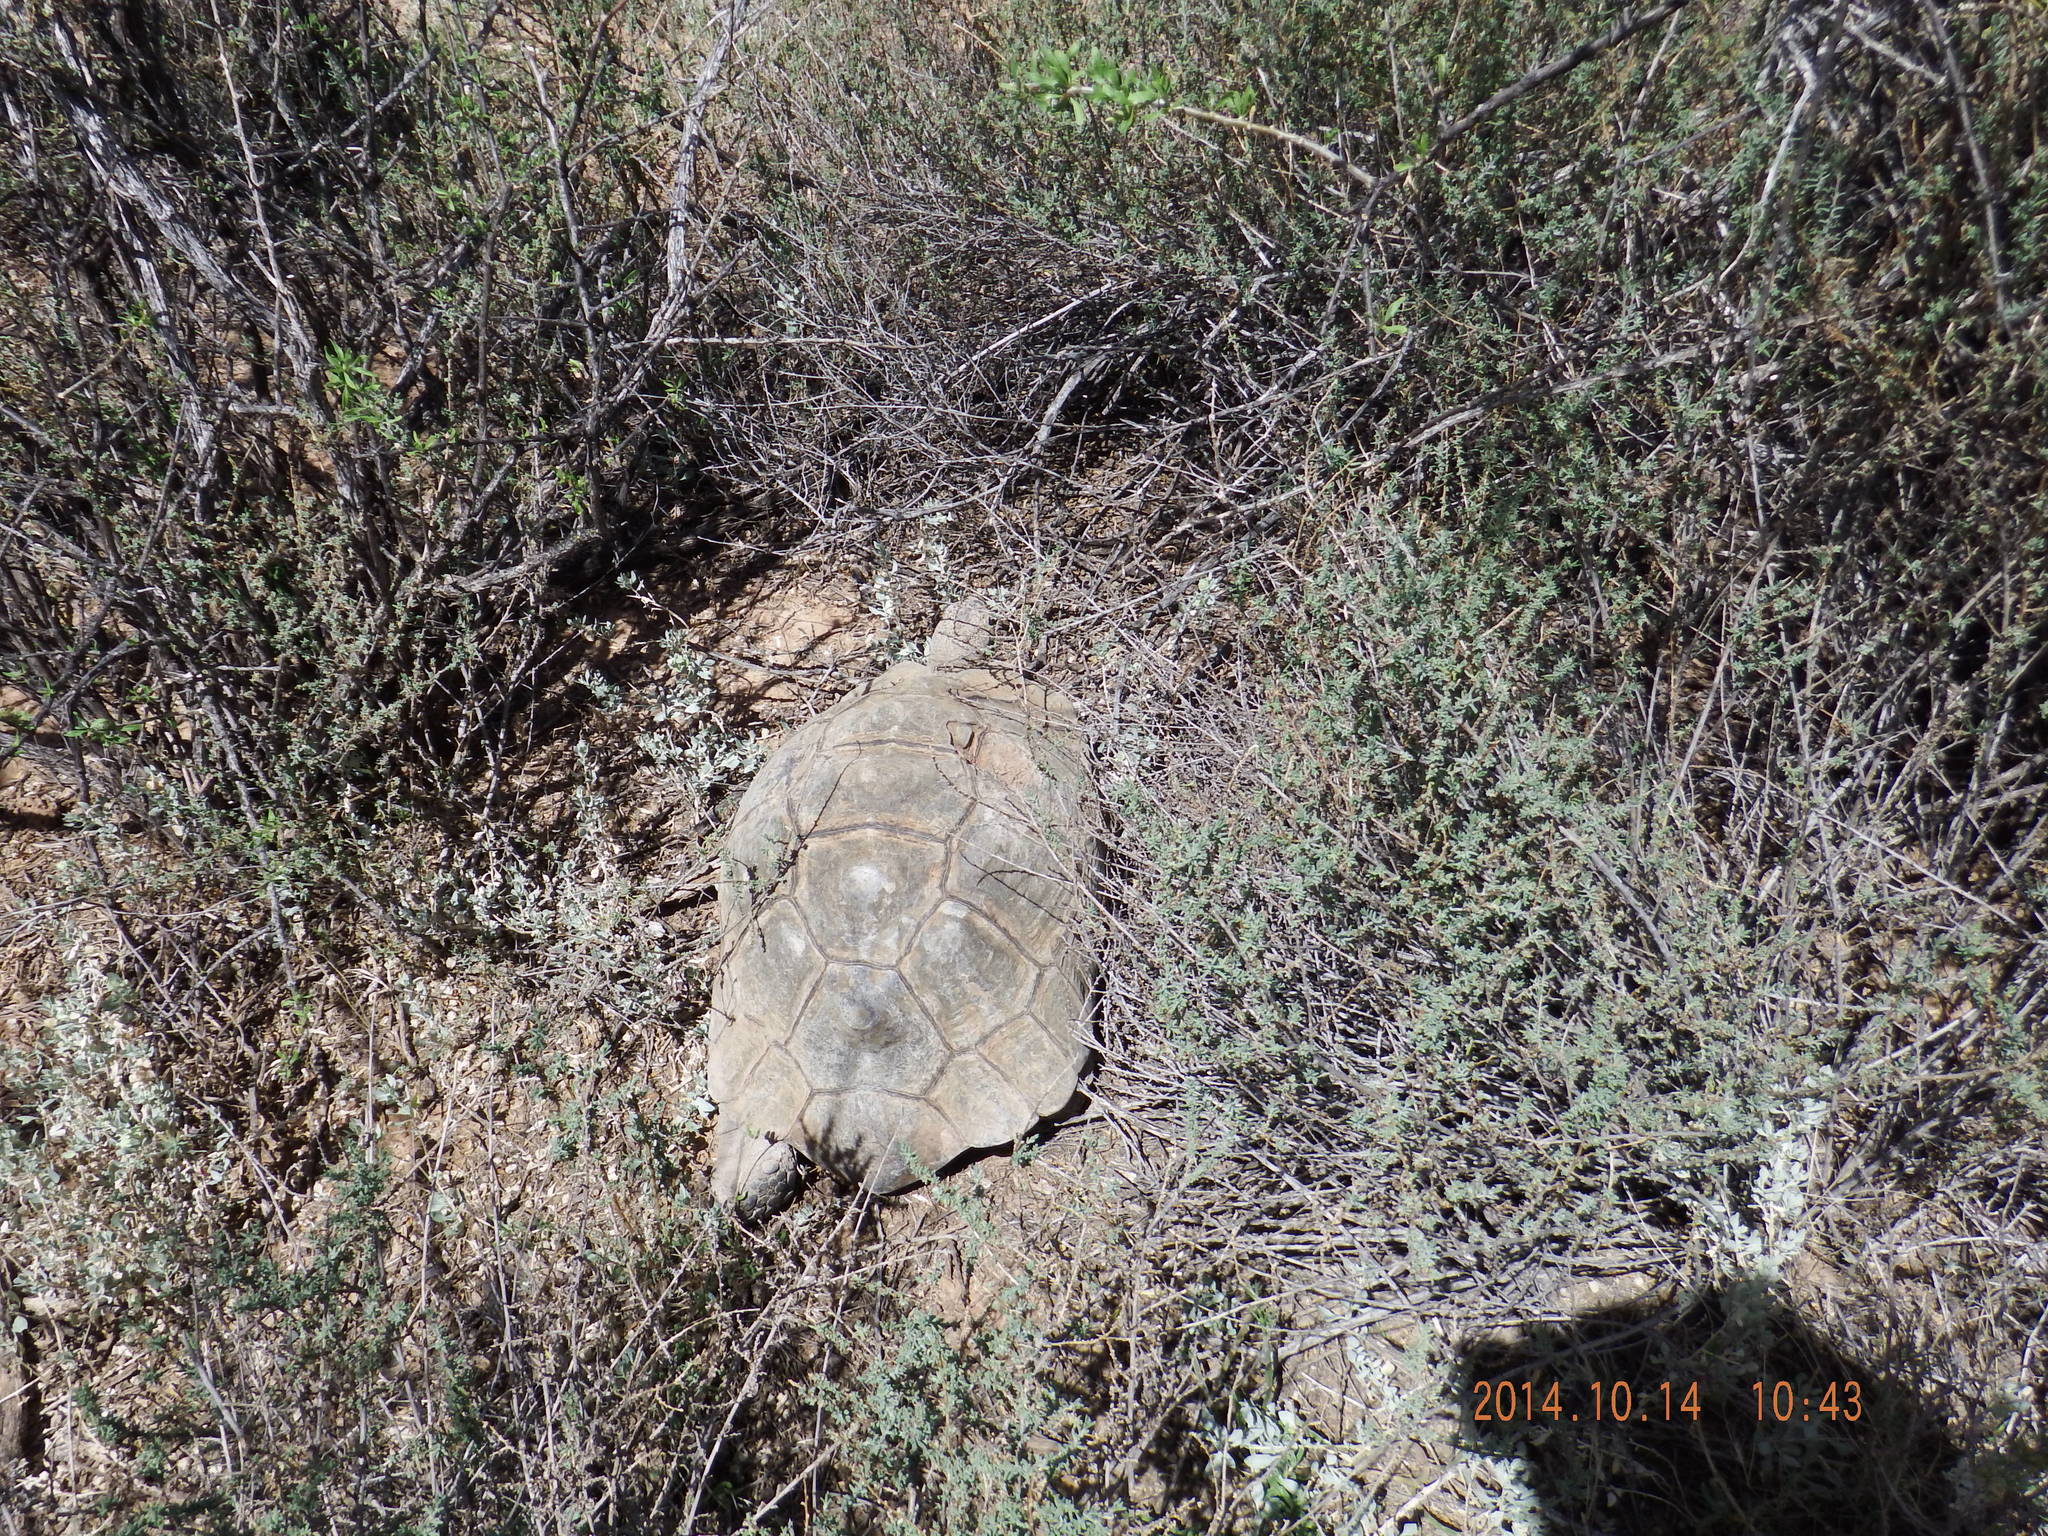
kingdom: Animalia
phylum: Chordata
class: Testudines
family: Testudinidae
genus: Stigmochelys
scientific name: Stigmochelys pardalis
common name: Leopard tortoise
